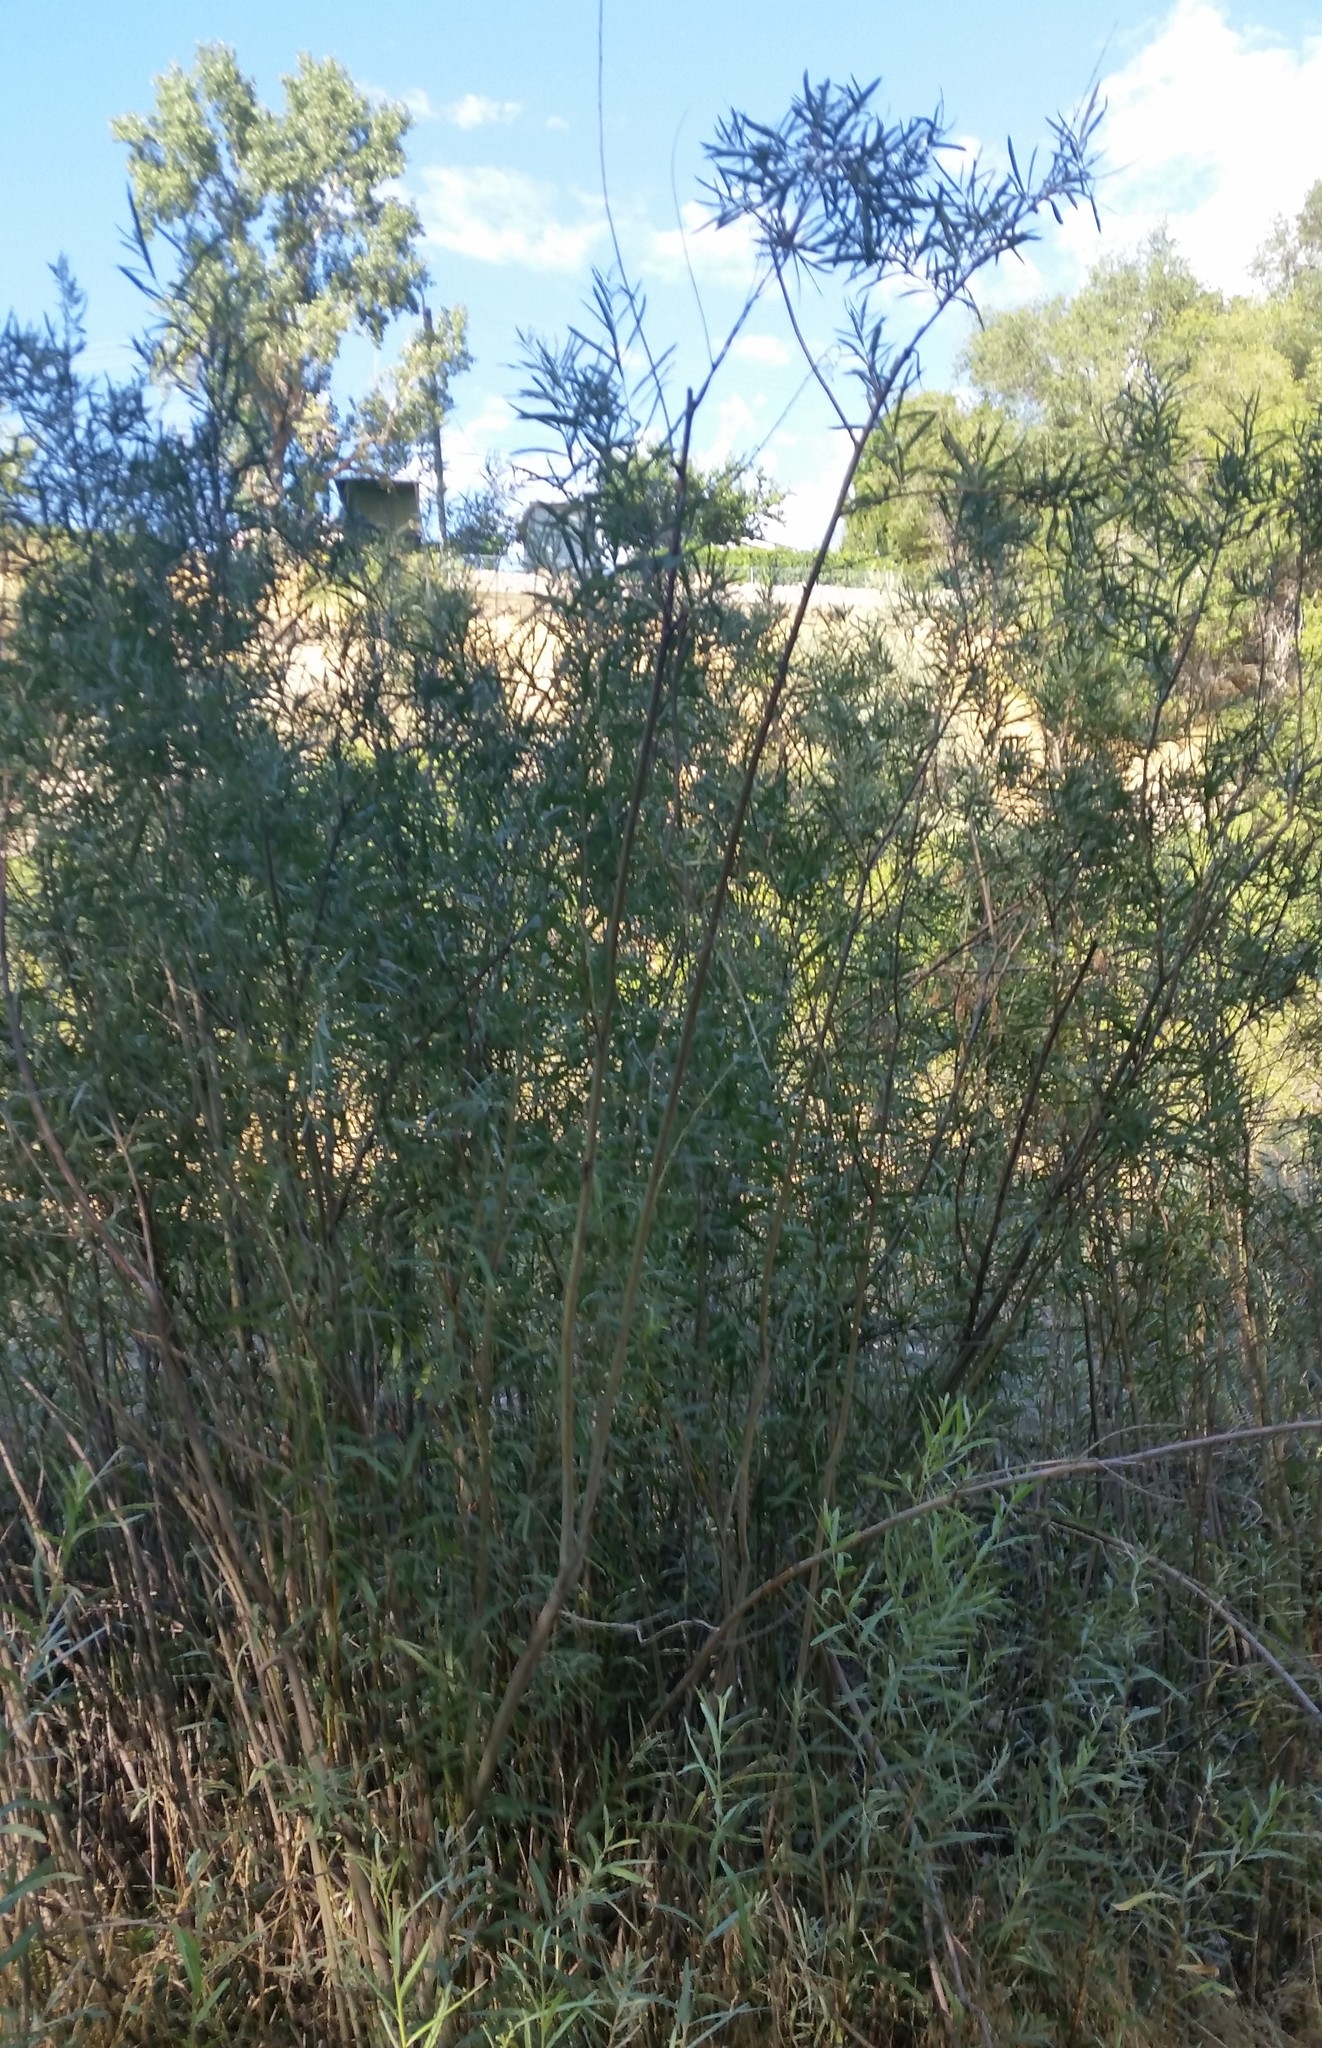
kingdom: Plantae
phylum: Tracheophyta
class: Magnoliopsida
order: Solanales
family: Solanaceae
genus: Solanum
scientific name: Solanum dulcamara
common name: Climbing nightshade
